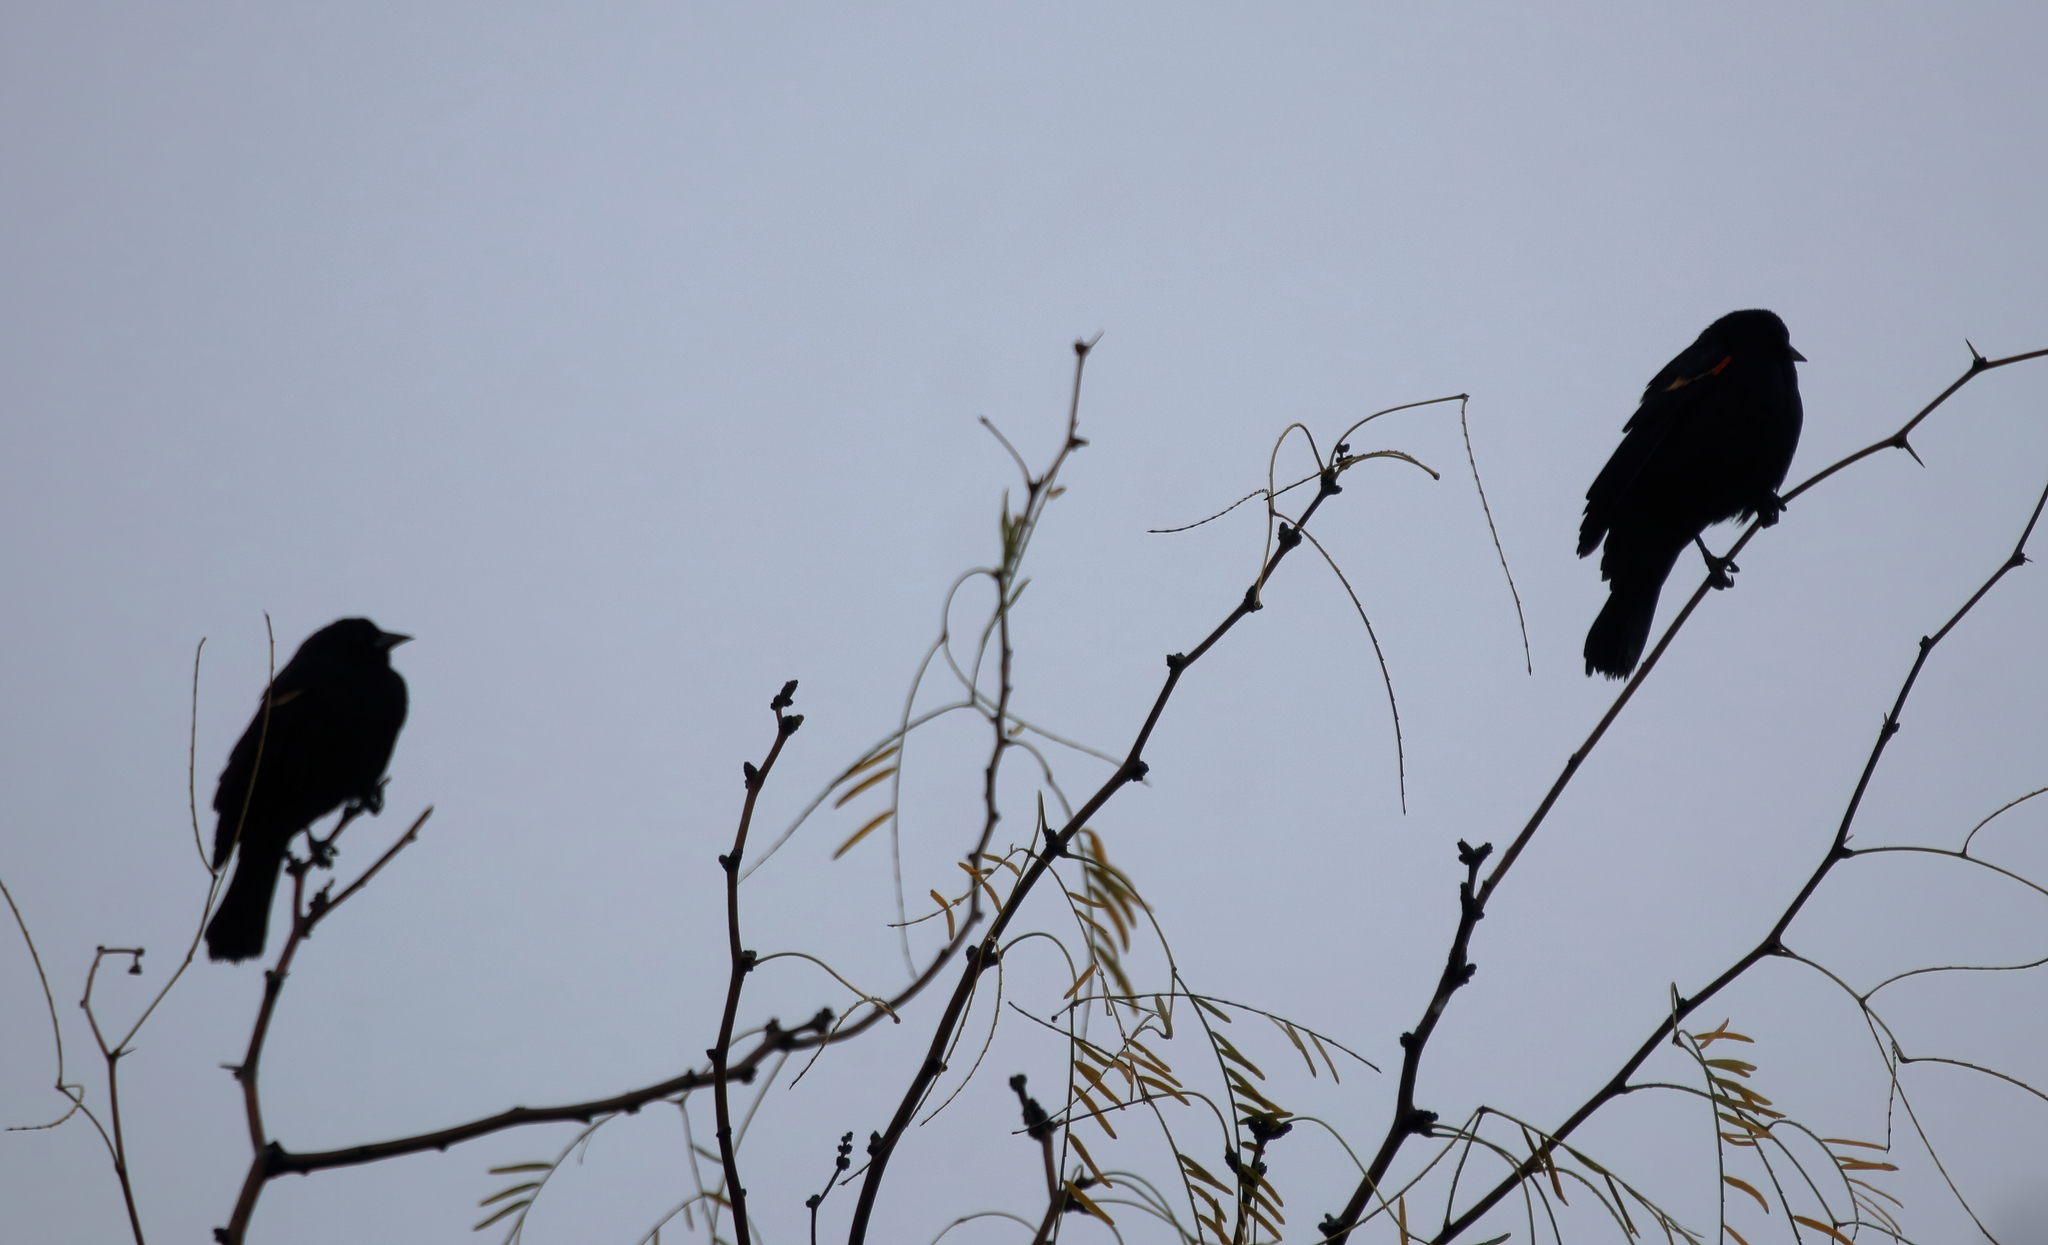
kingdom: Animalia
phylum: Chordata
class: Aves
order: Passeriformes
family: Icteridae
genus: Agelaius
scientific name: Agelaius phoeniceus
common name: Red-winged blackbird
